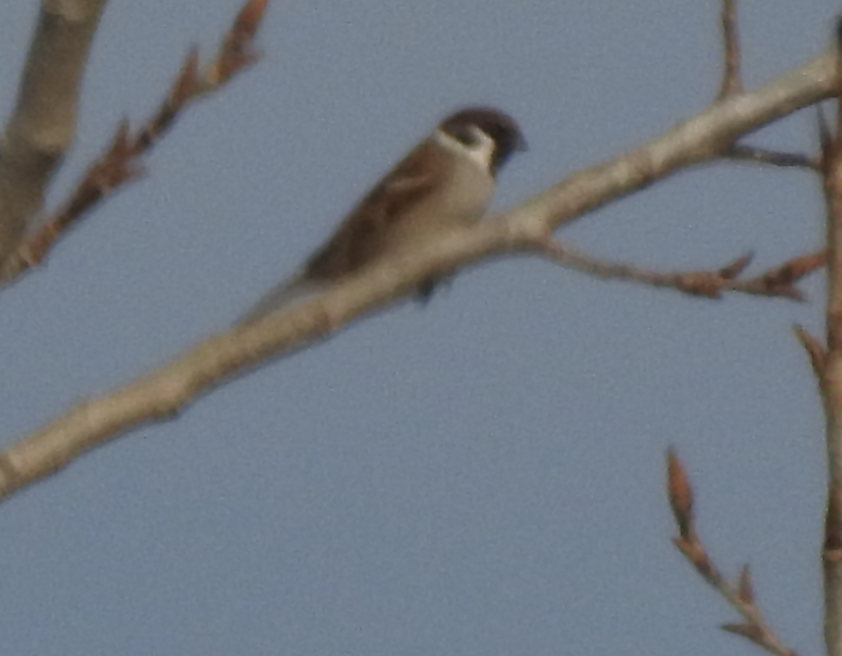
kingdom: Animalia
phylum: Chordata
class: Aves
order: Passeriformes
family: Passeridae
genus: Passer
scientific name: Passer montanus
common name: Eurasian tree sparrow
